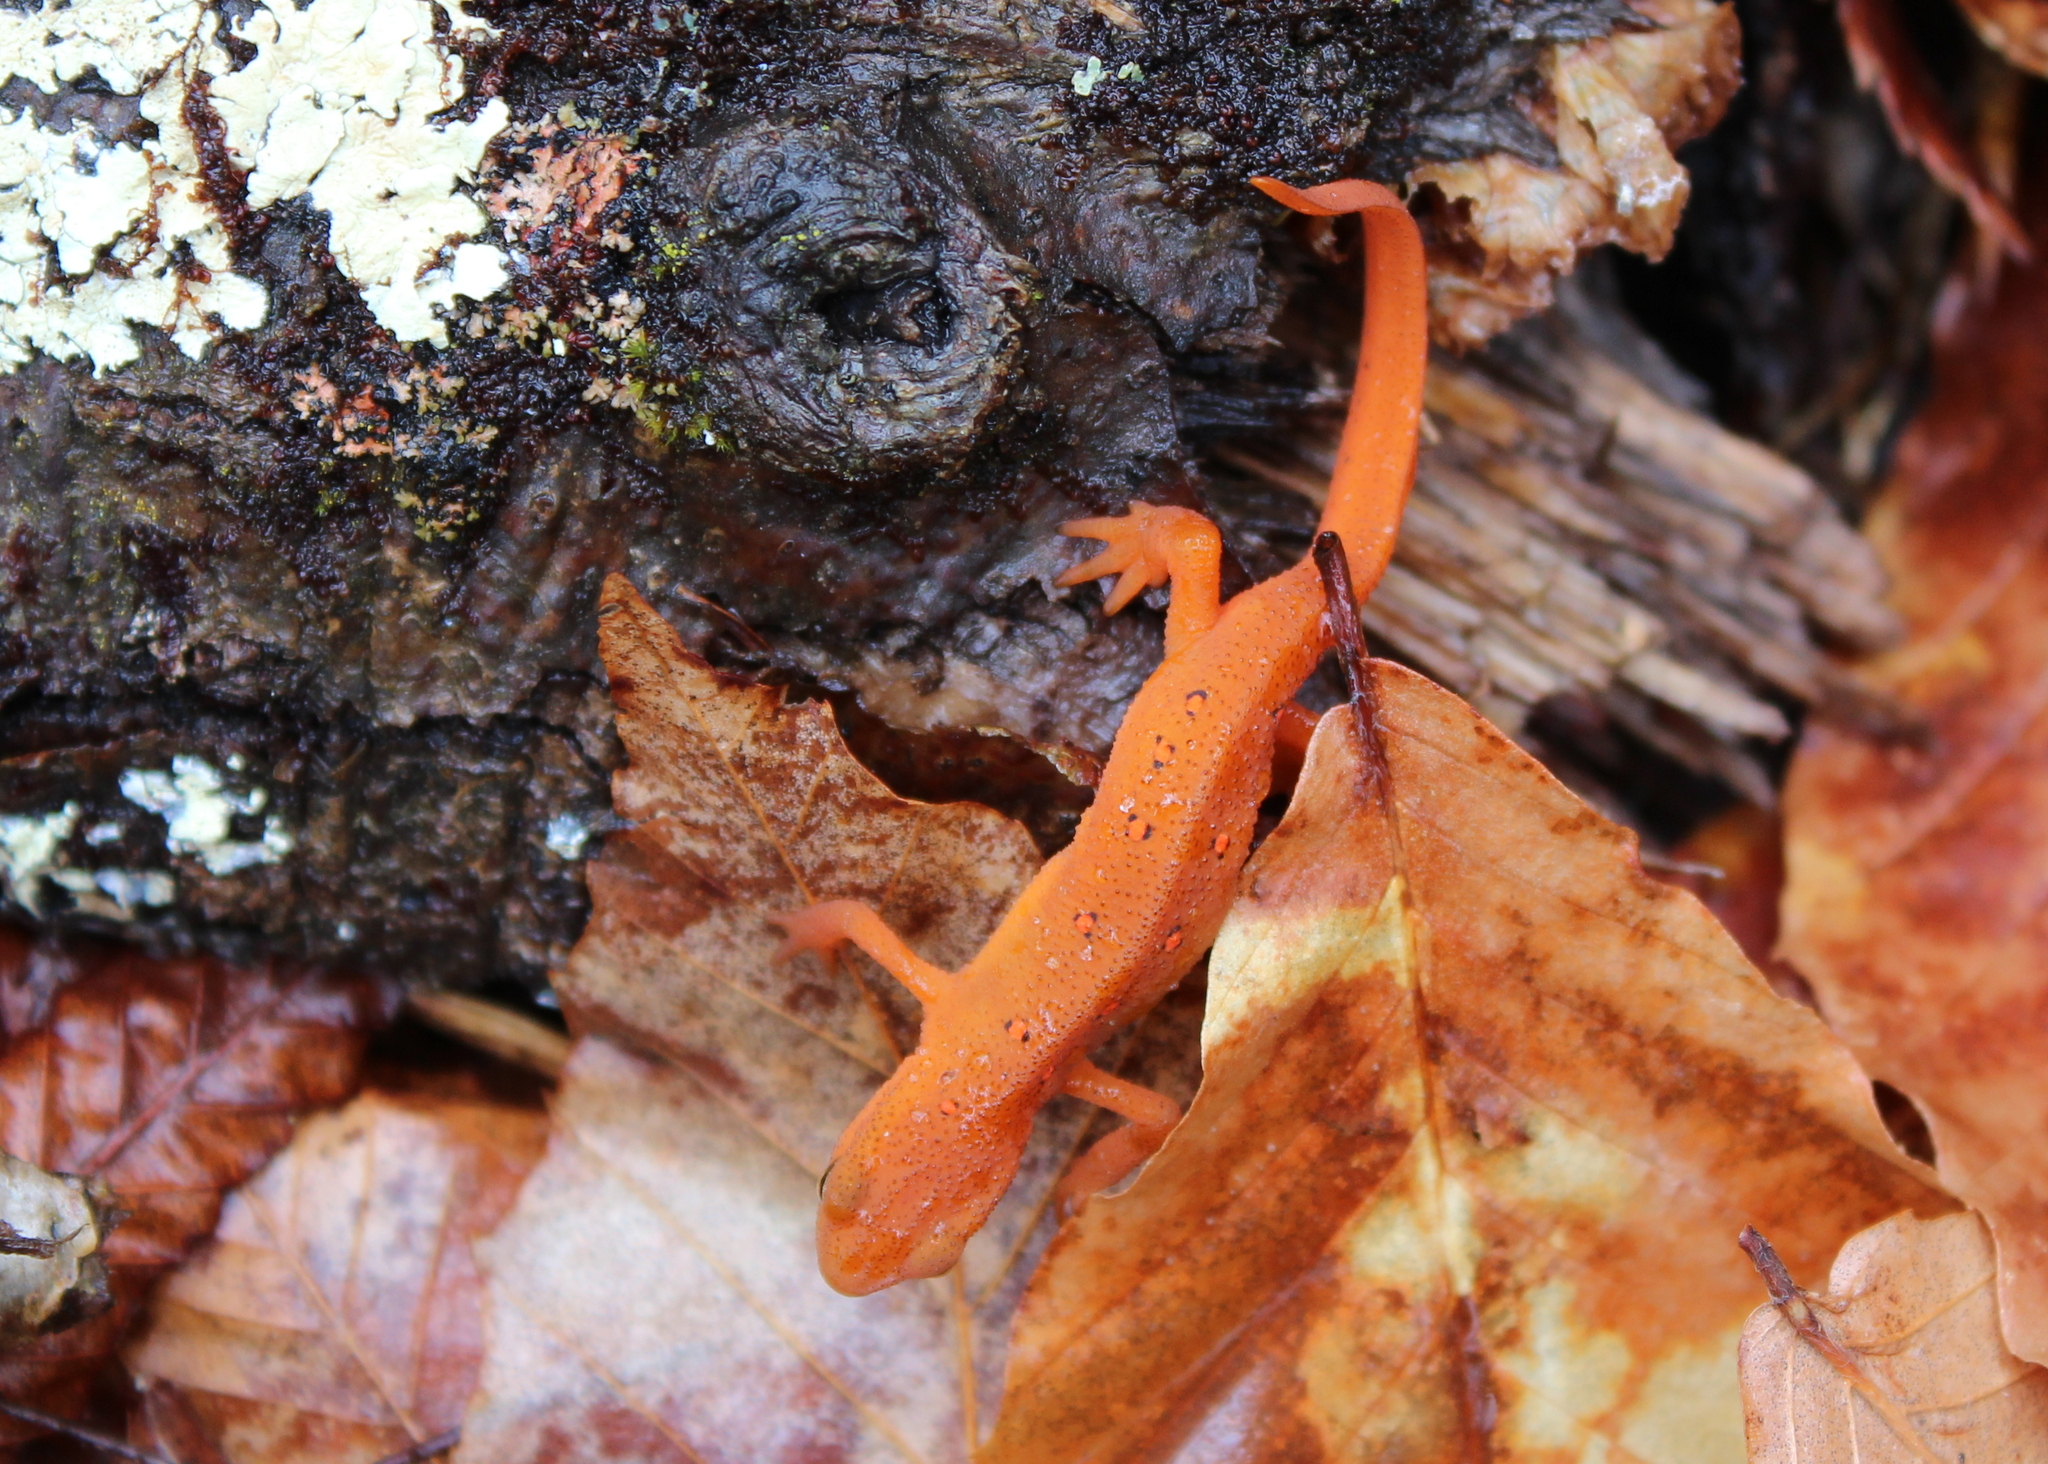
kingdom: Animalia
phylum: Chordata
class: Amphibia
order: Caudata
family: Salamandridae
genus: Notophthalmus
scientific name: Notophthalmus viridescens
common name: Eastern newt
